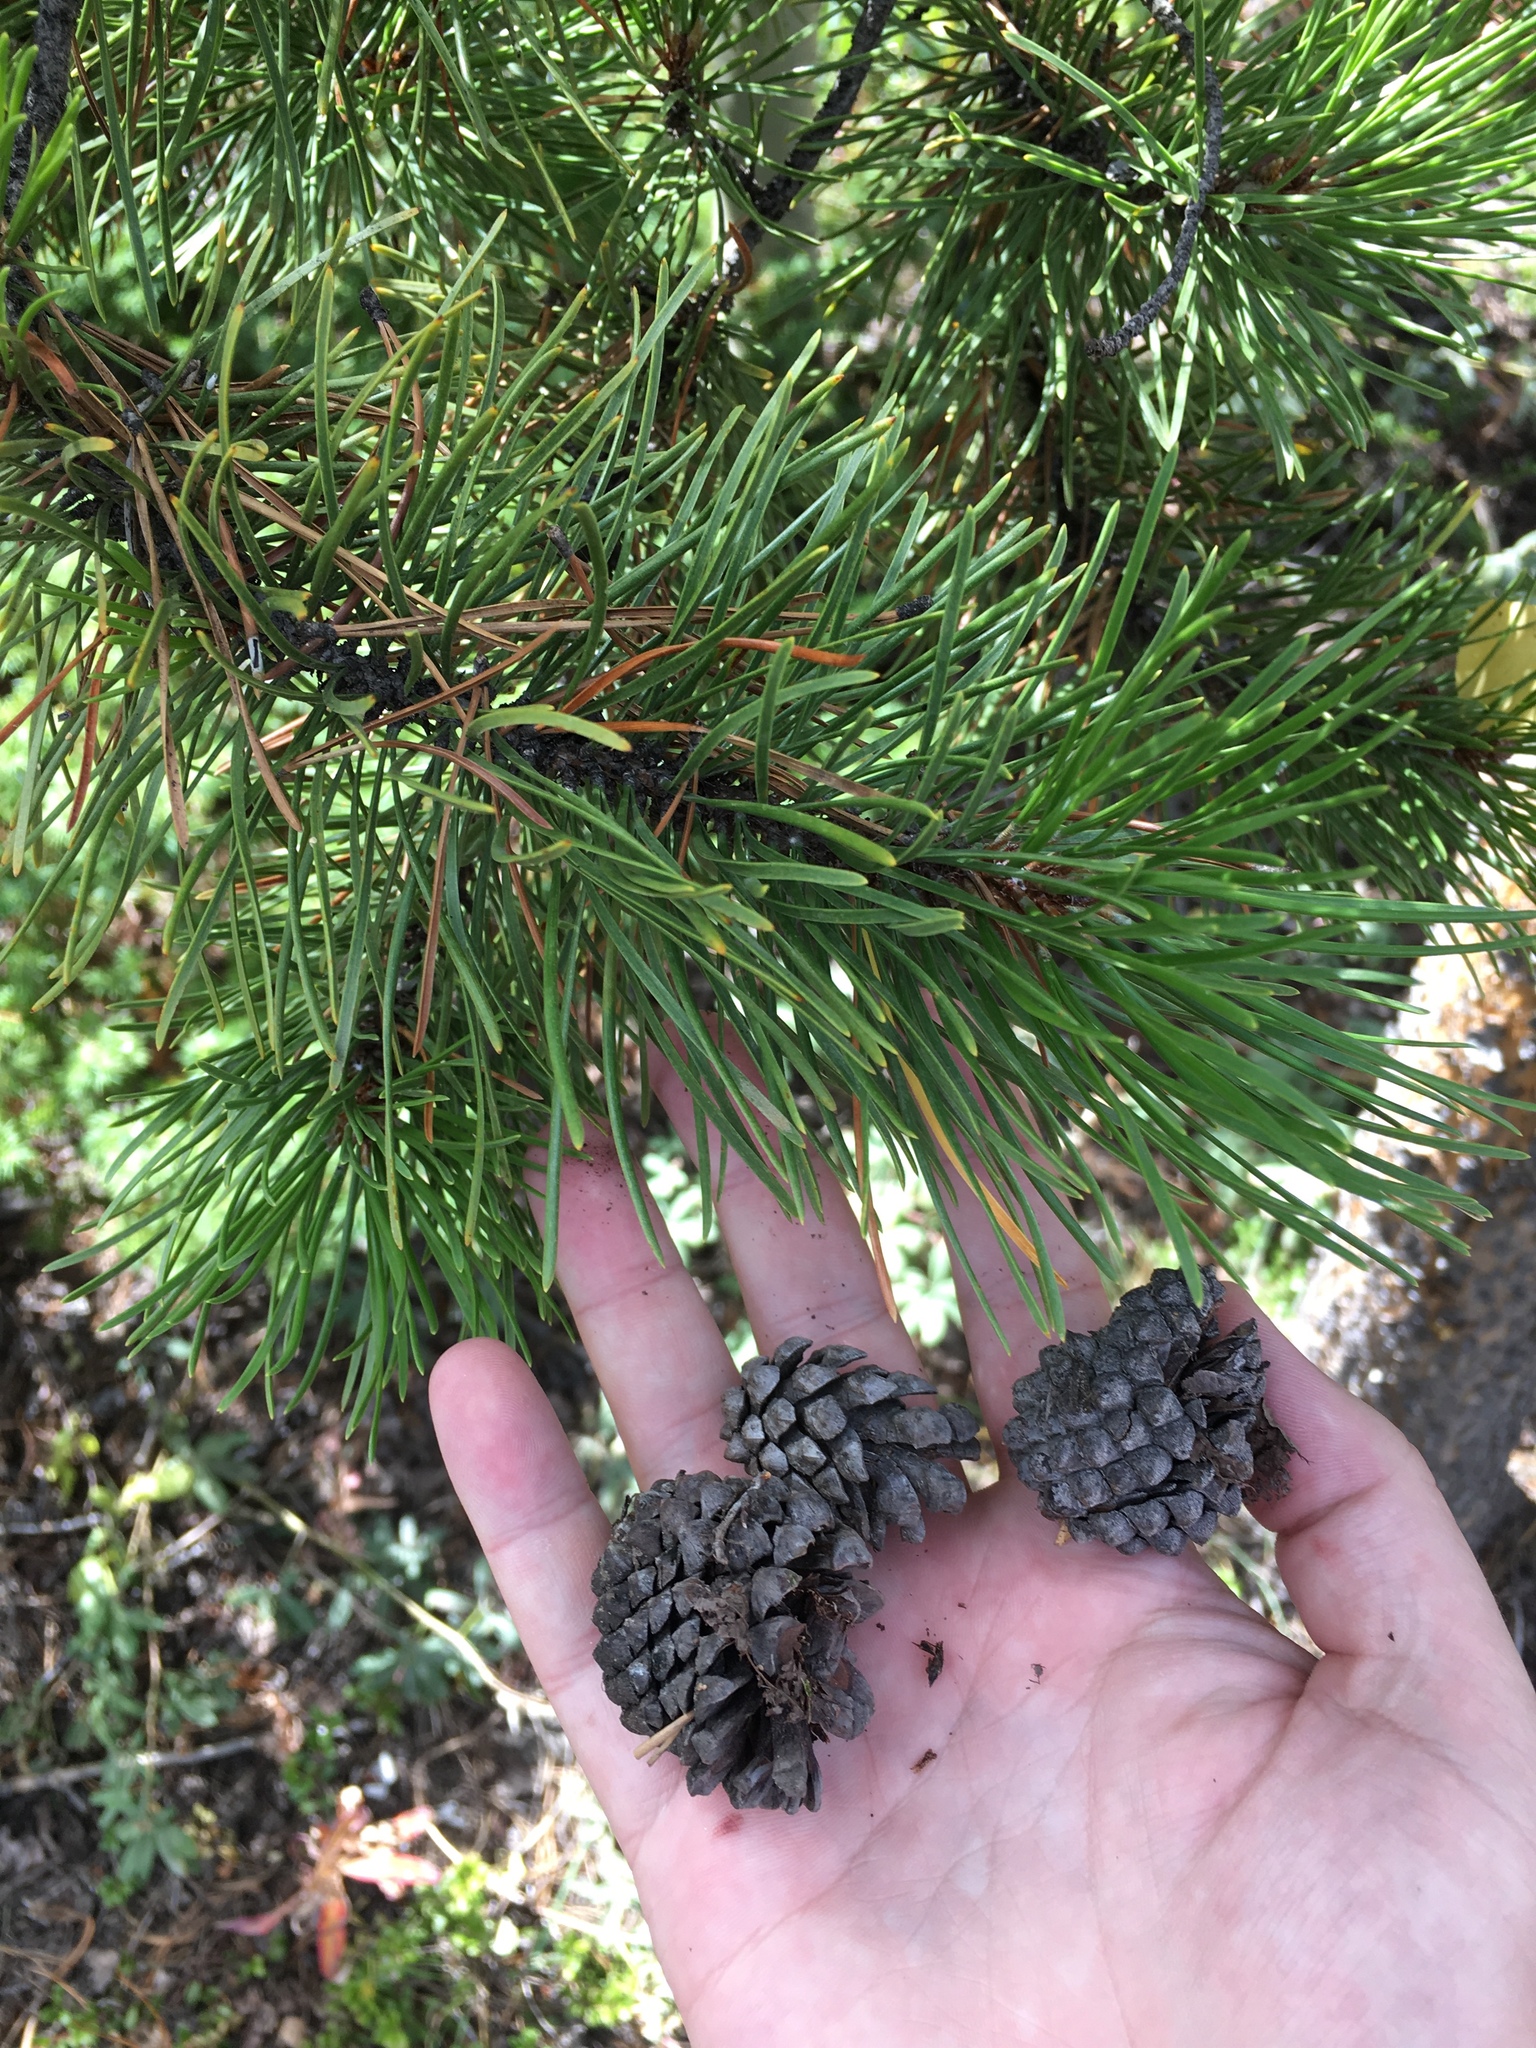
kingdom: Plantae
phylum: Tracheophyta
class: Pinopsida
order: Pinales
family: Pinaceae
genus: Pinus
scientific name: Pinus contorta
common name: Lodgepole pine
